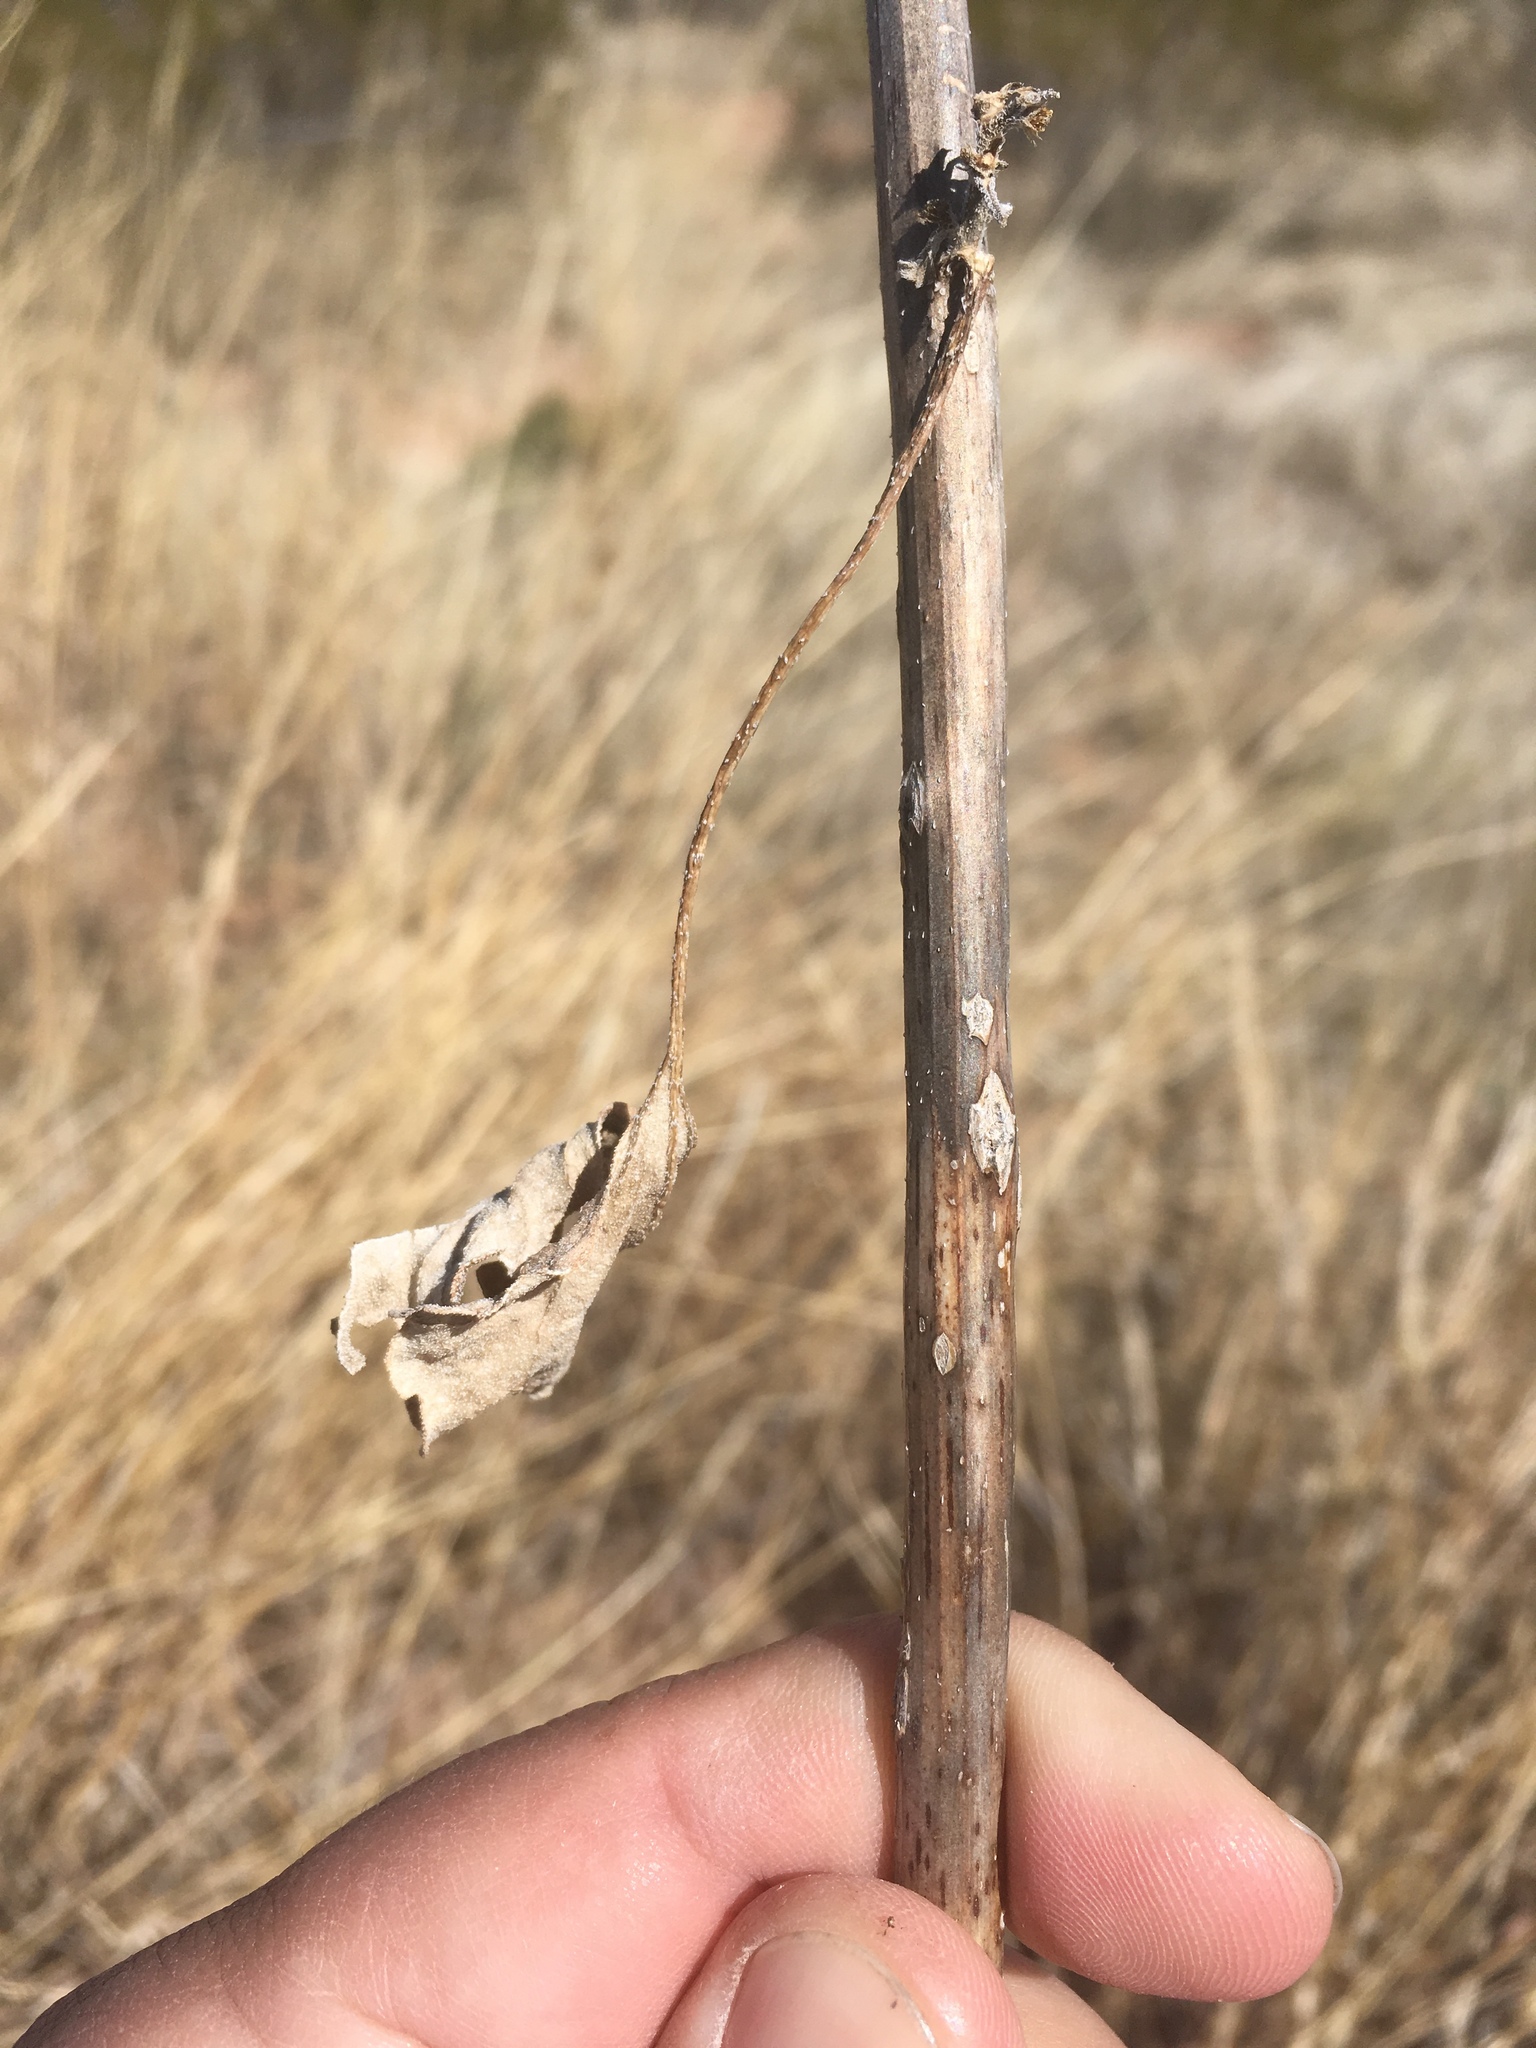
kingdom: Plantae
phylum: Tracheophyta
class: Magnoliopsida
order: Asterales
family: Asteraceae
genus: Xanthium
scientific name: Xanthium strumarium
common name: Rough cocklebur
